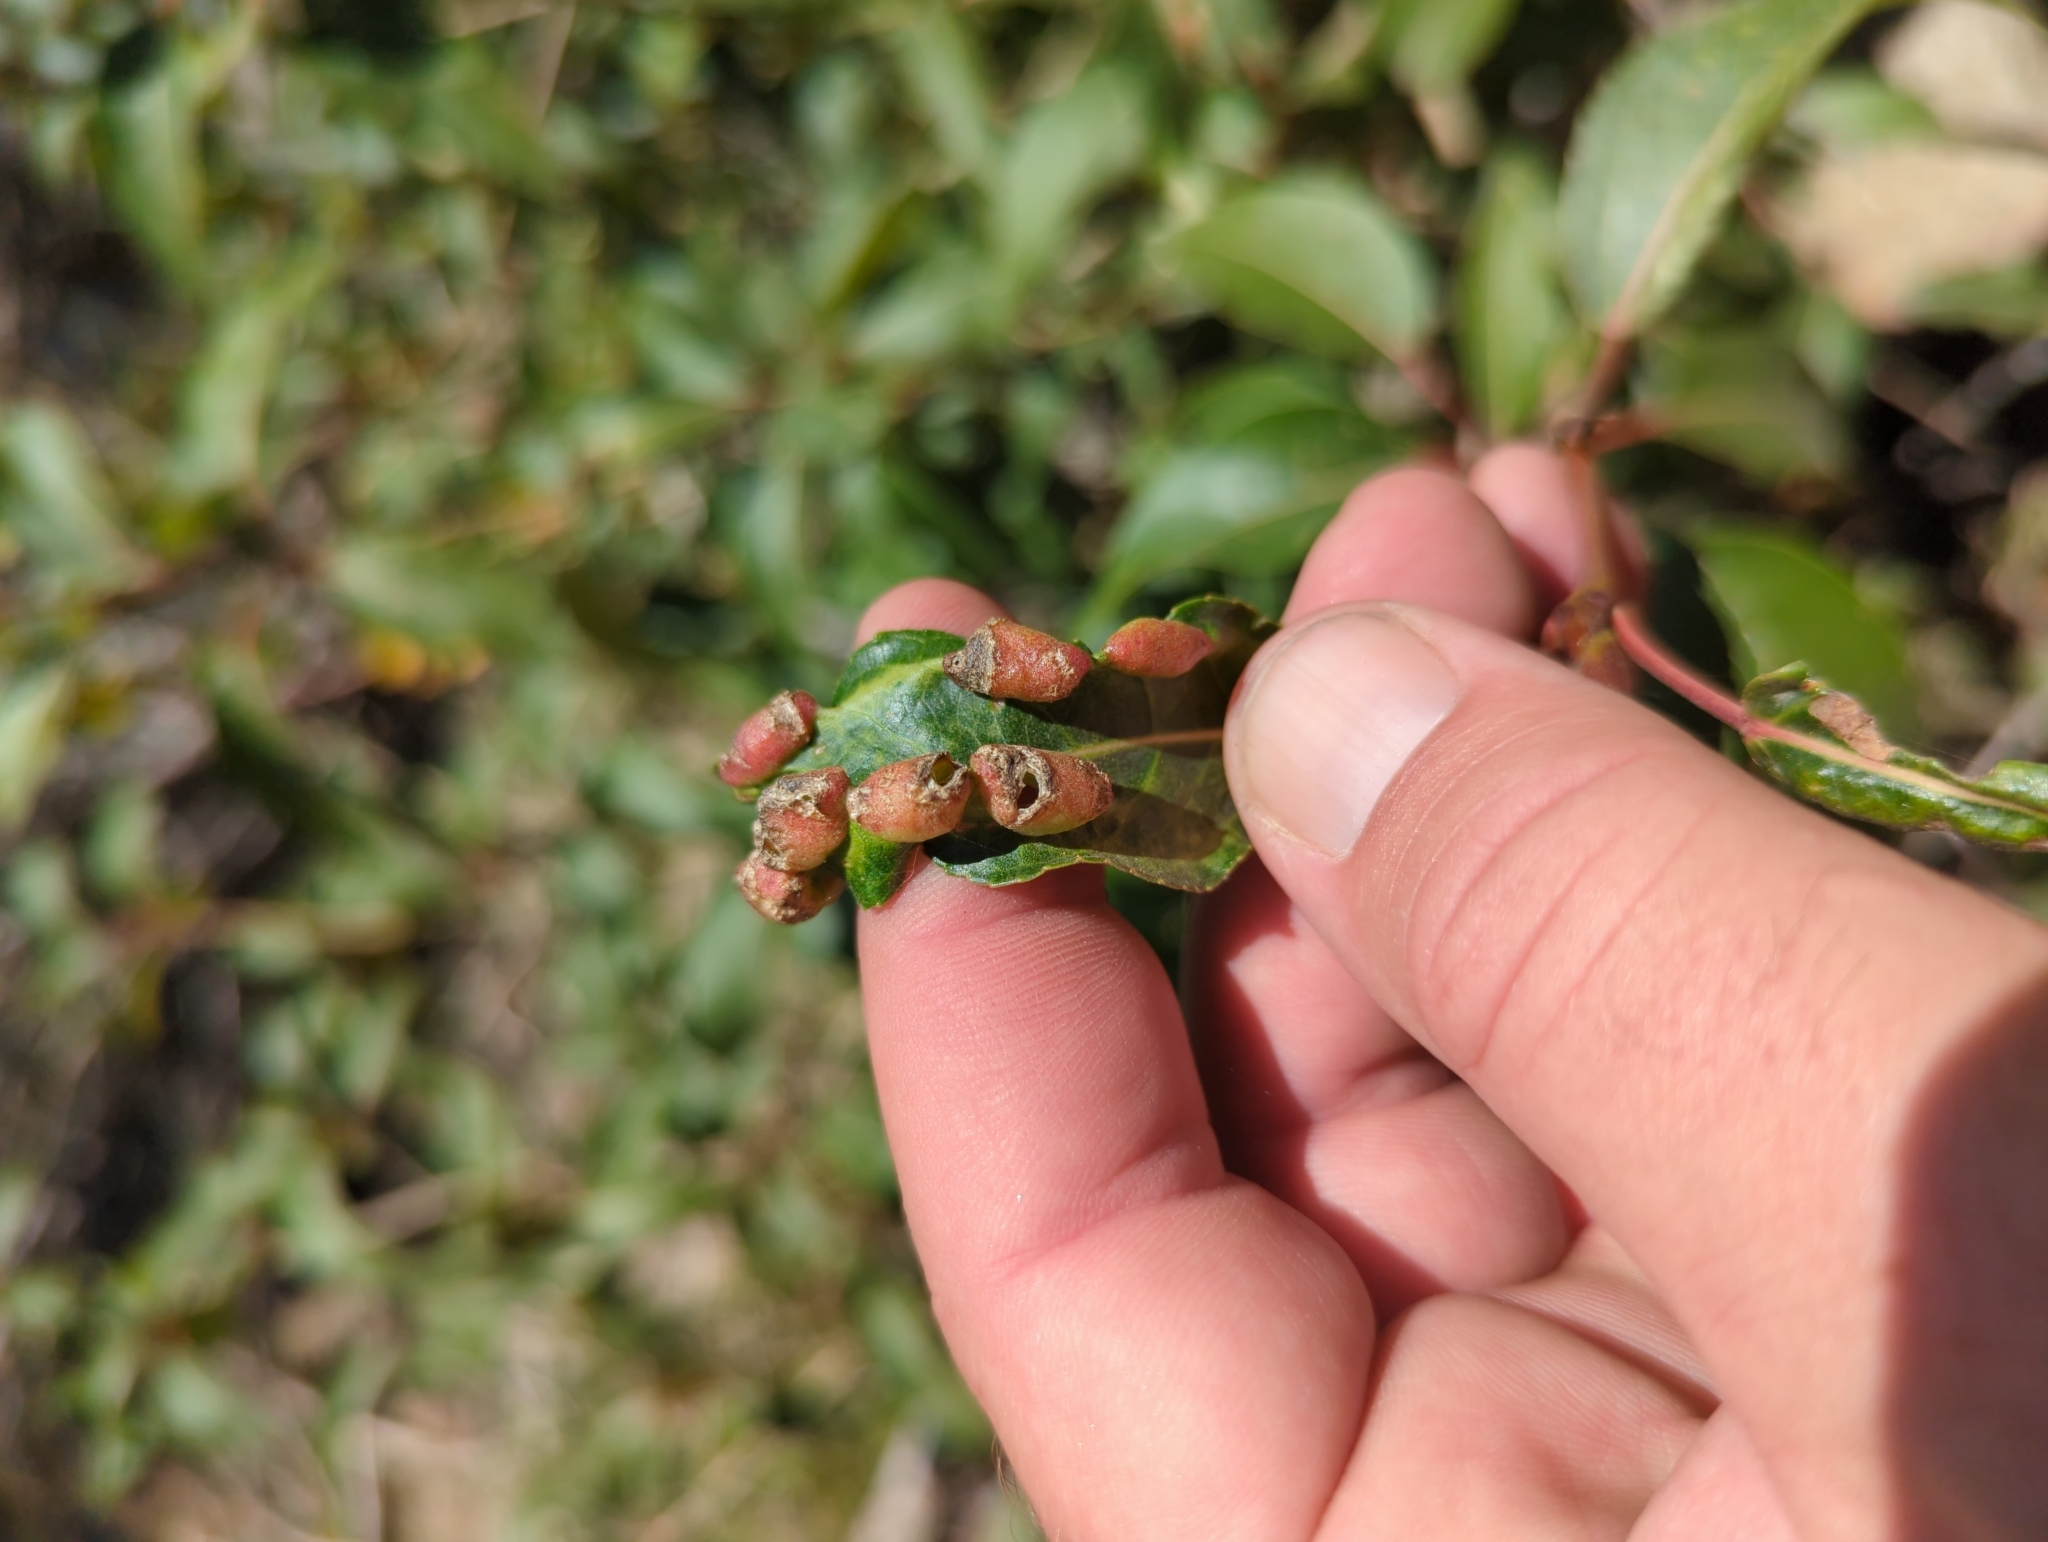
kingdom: Animalia
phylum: Arthropoda
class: Insecta
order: Hemiptera
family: Aphididae
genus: Thecabius
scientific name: Thecabius populimonilis
